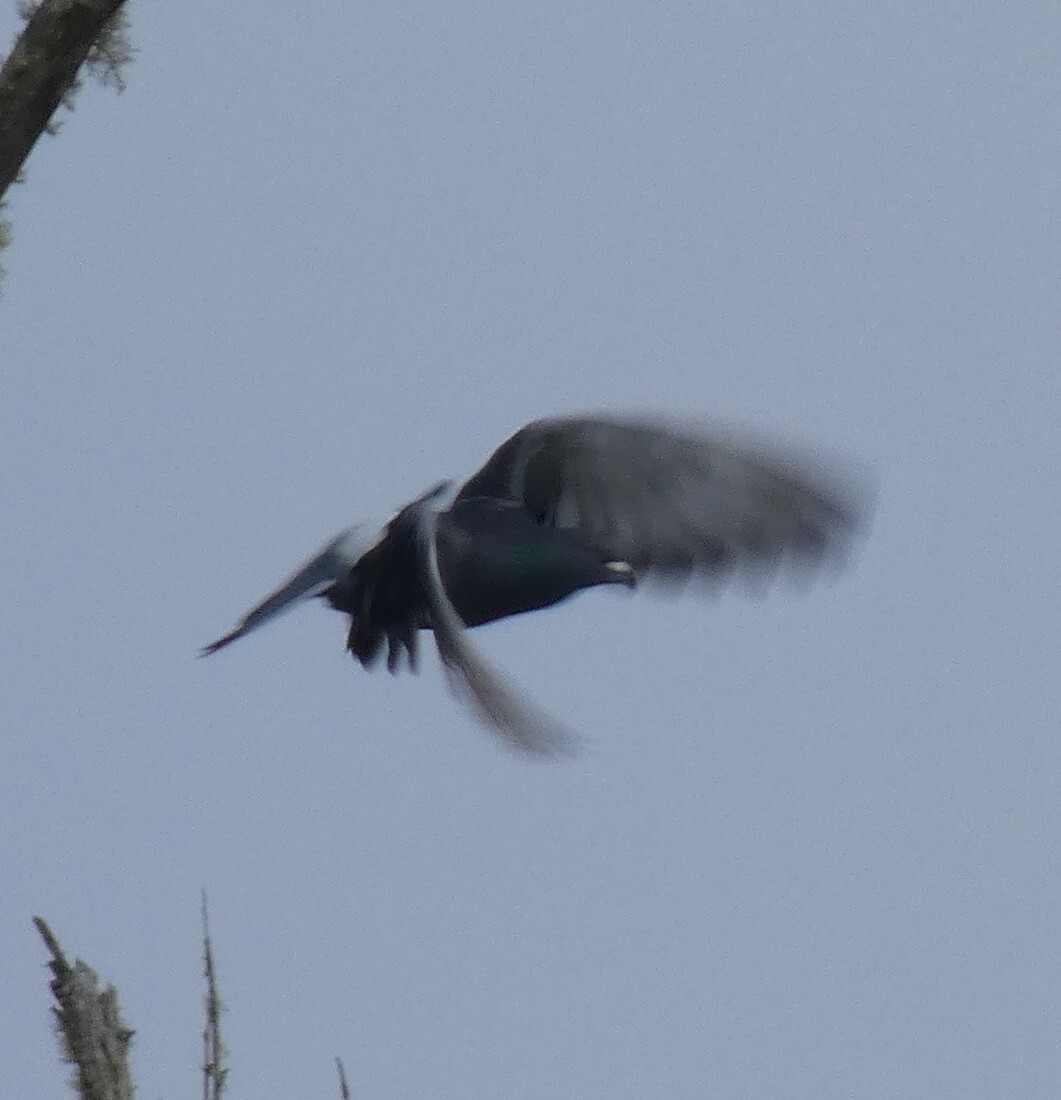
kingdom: Animalia
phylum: Chordata
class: Aves
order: Columbiformes
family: Columbidae
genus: Columba
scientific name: Columba livia
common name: Rock pigeon
